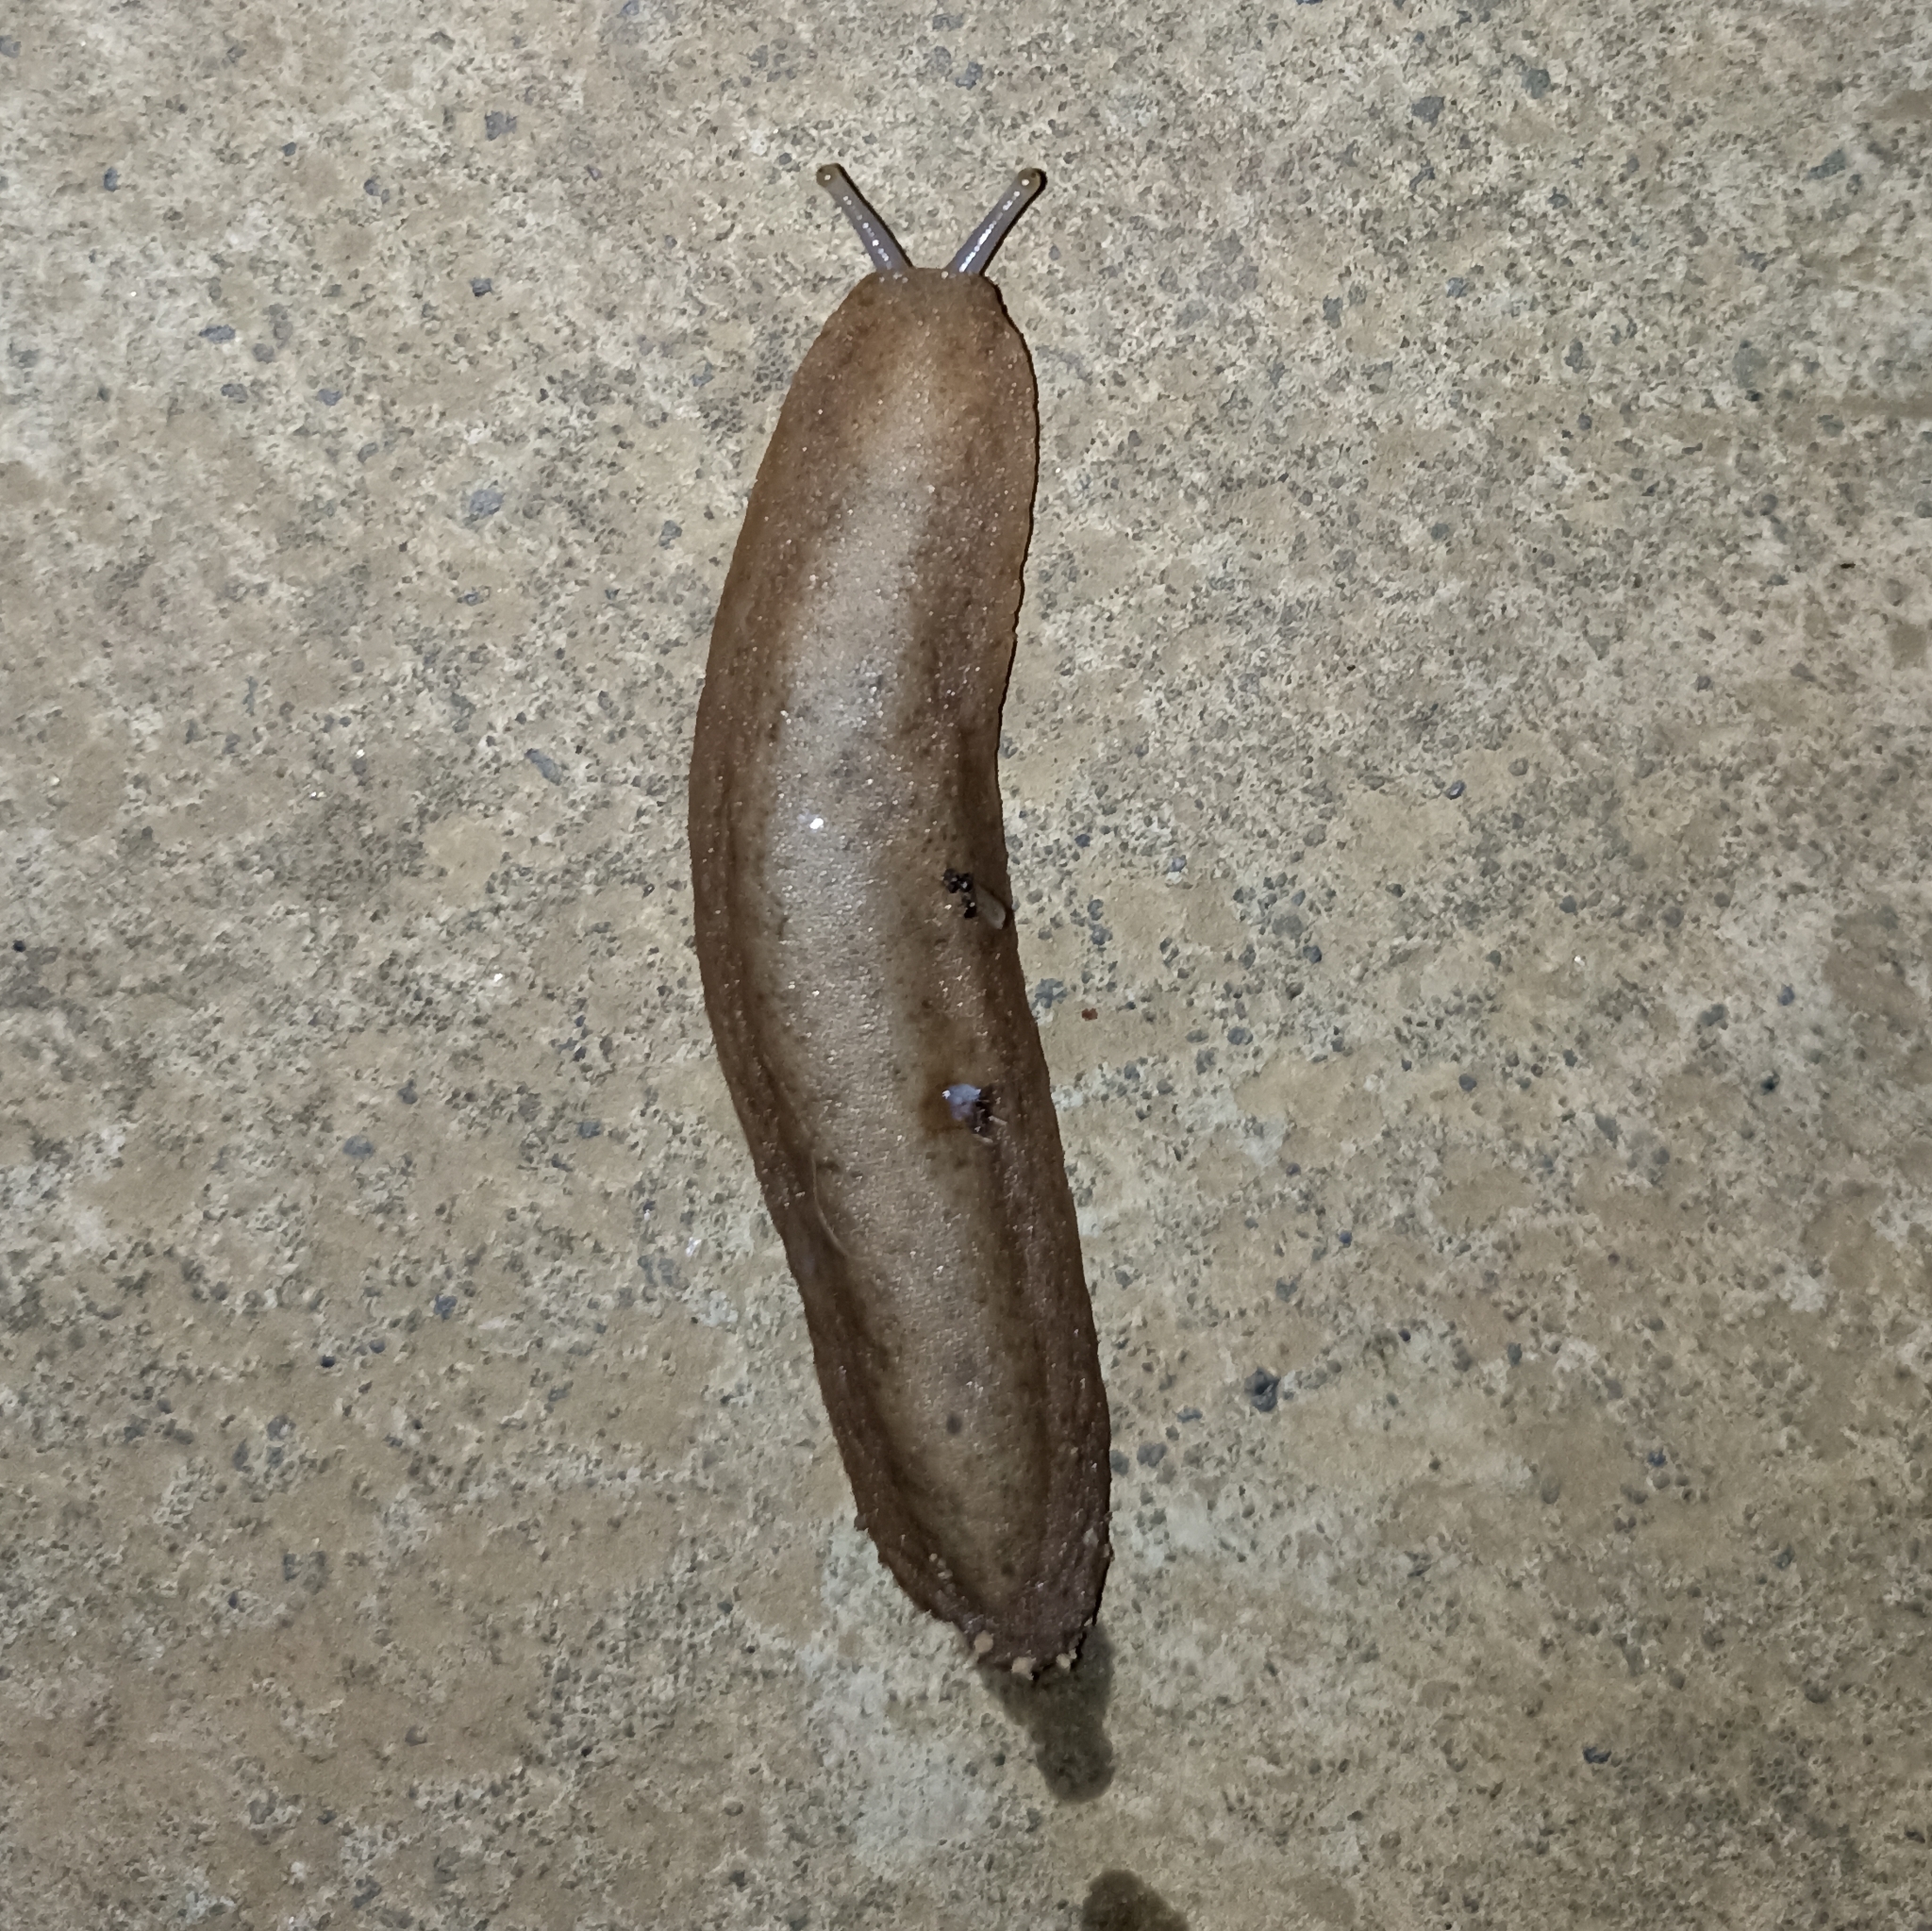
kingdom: Animalia
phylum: Mollusca
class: Gastropoda
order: Systellommatophora
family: Veronicellidae
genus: Sarasinula
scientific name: Sarasinula plebeia
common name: Caribbean leatherleaf
